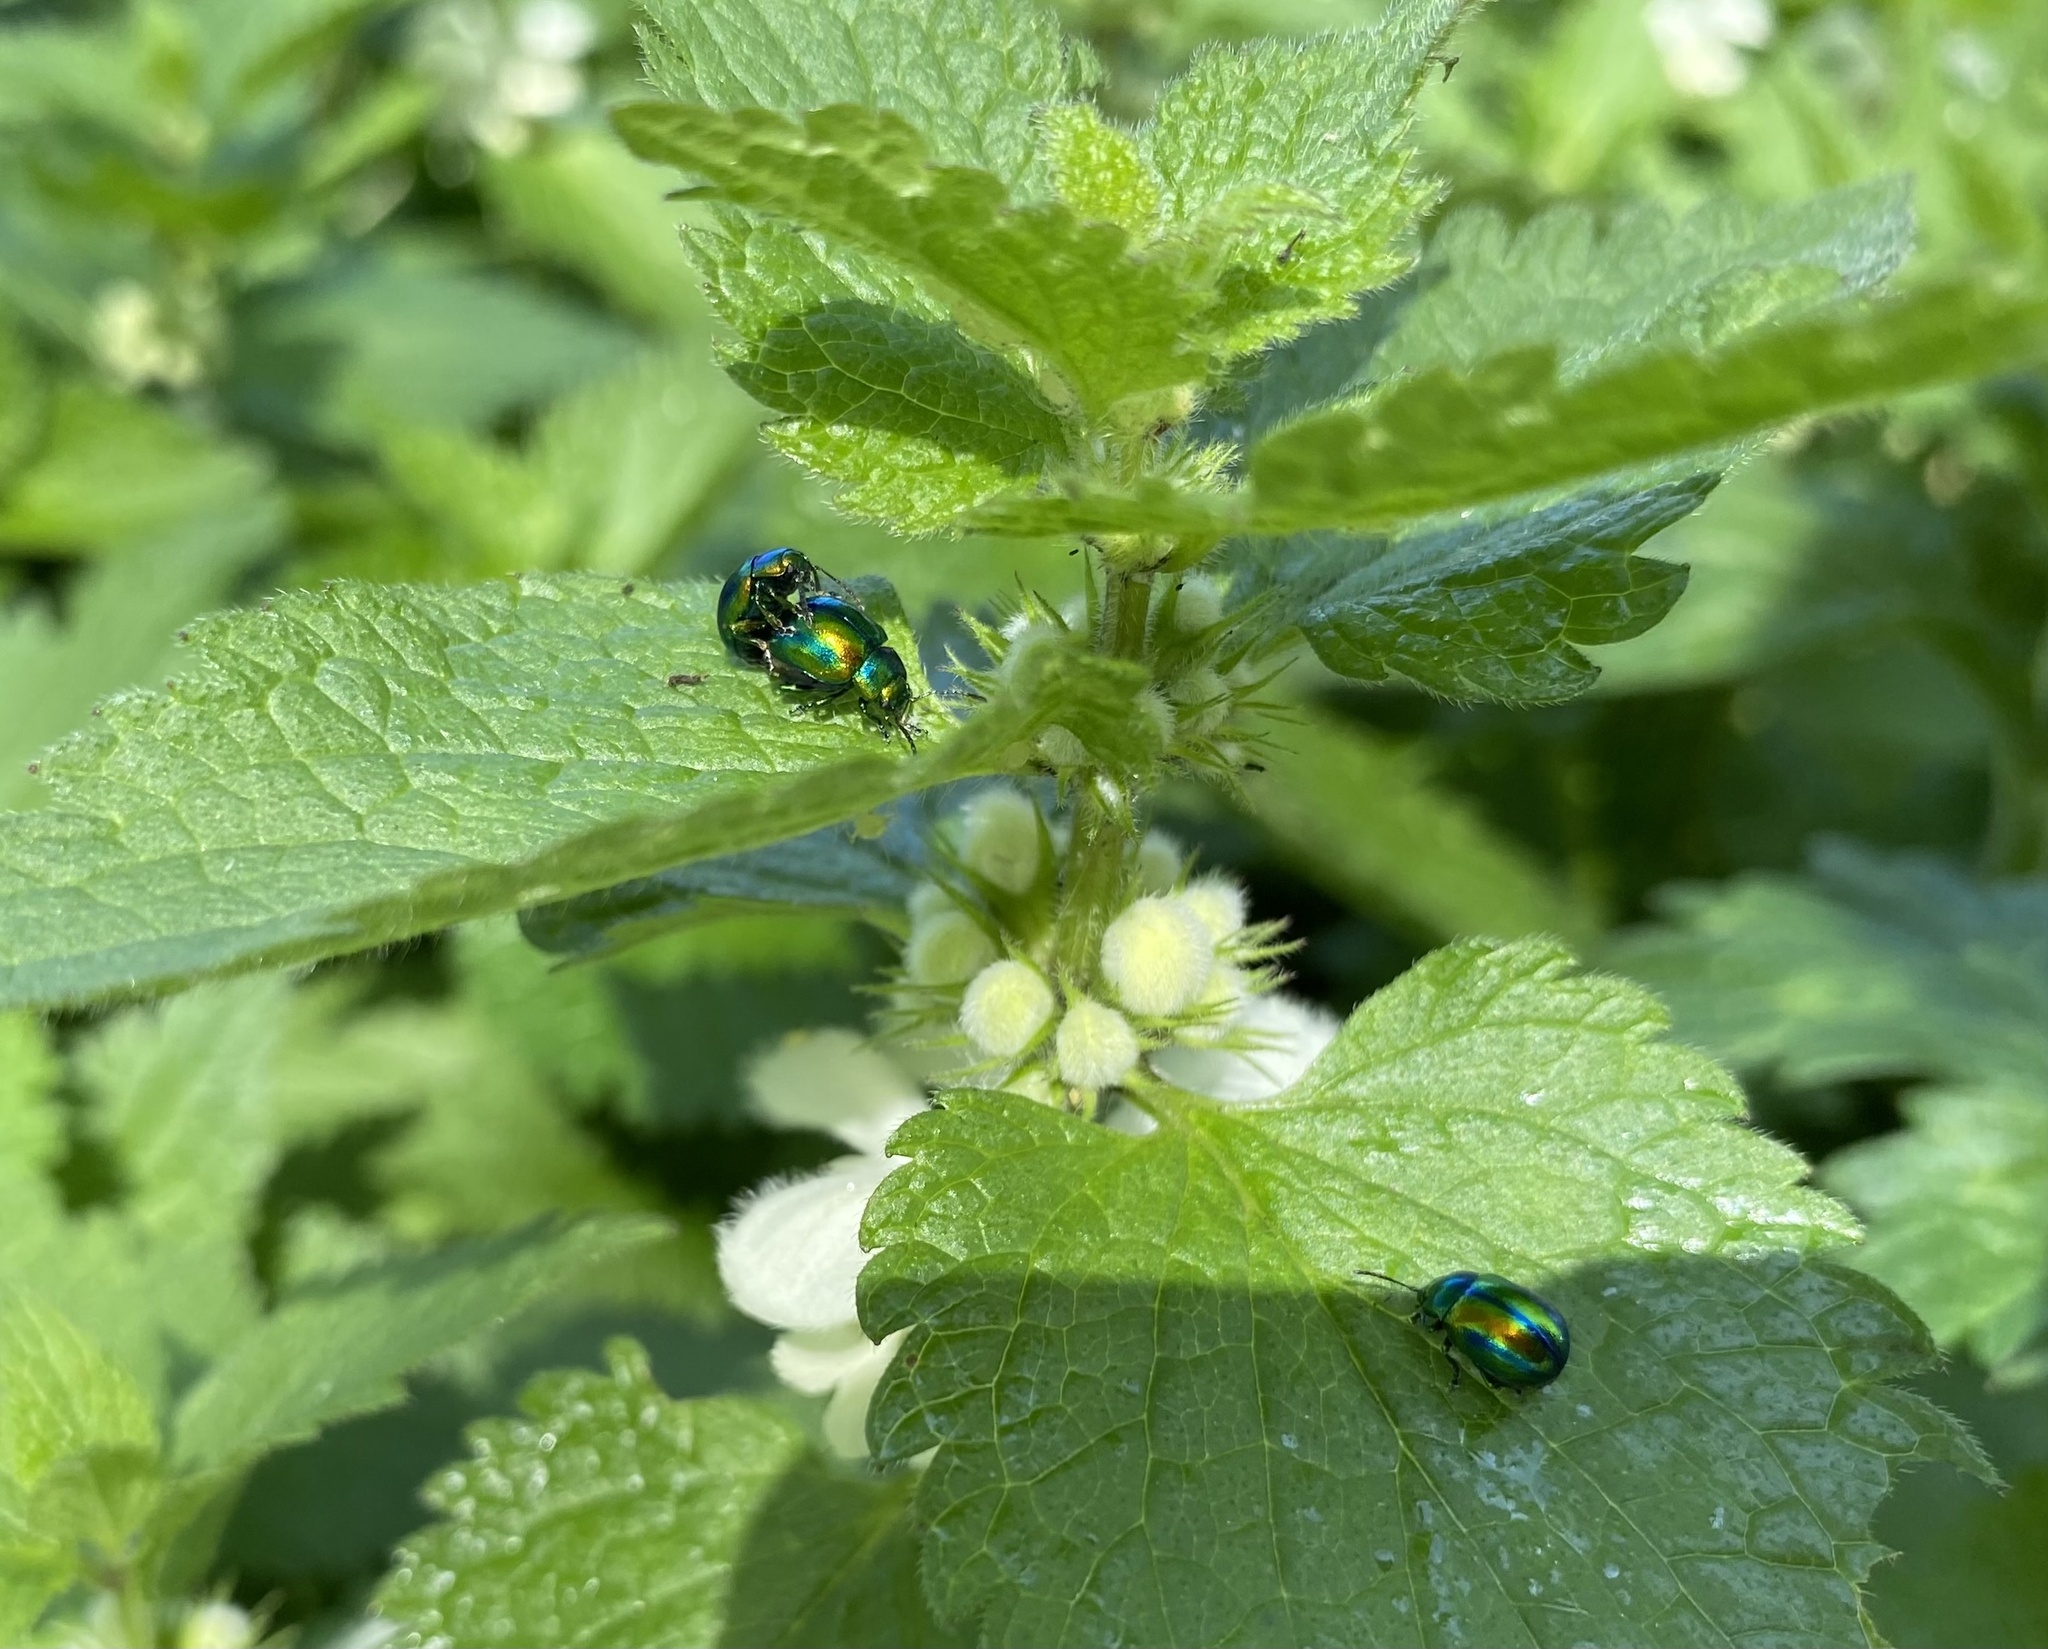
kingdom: Animalia
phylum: Arthropoda
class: Insecta
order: Coleoptera
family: Chrysomelidae
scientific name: Chrysomelidae
